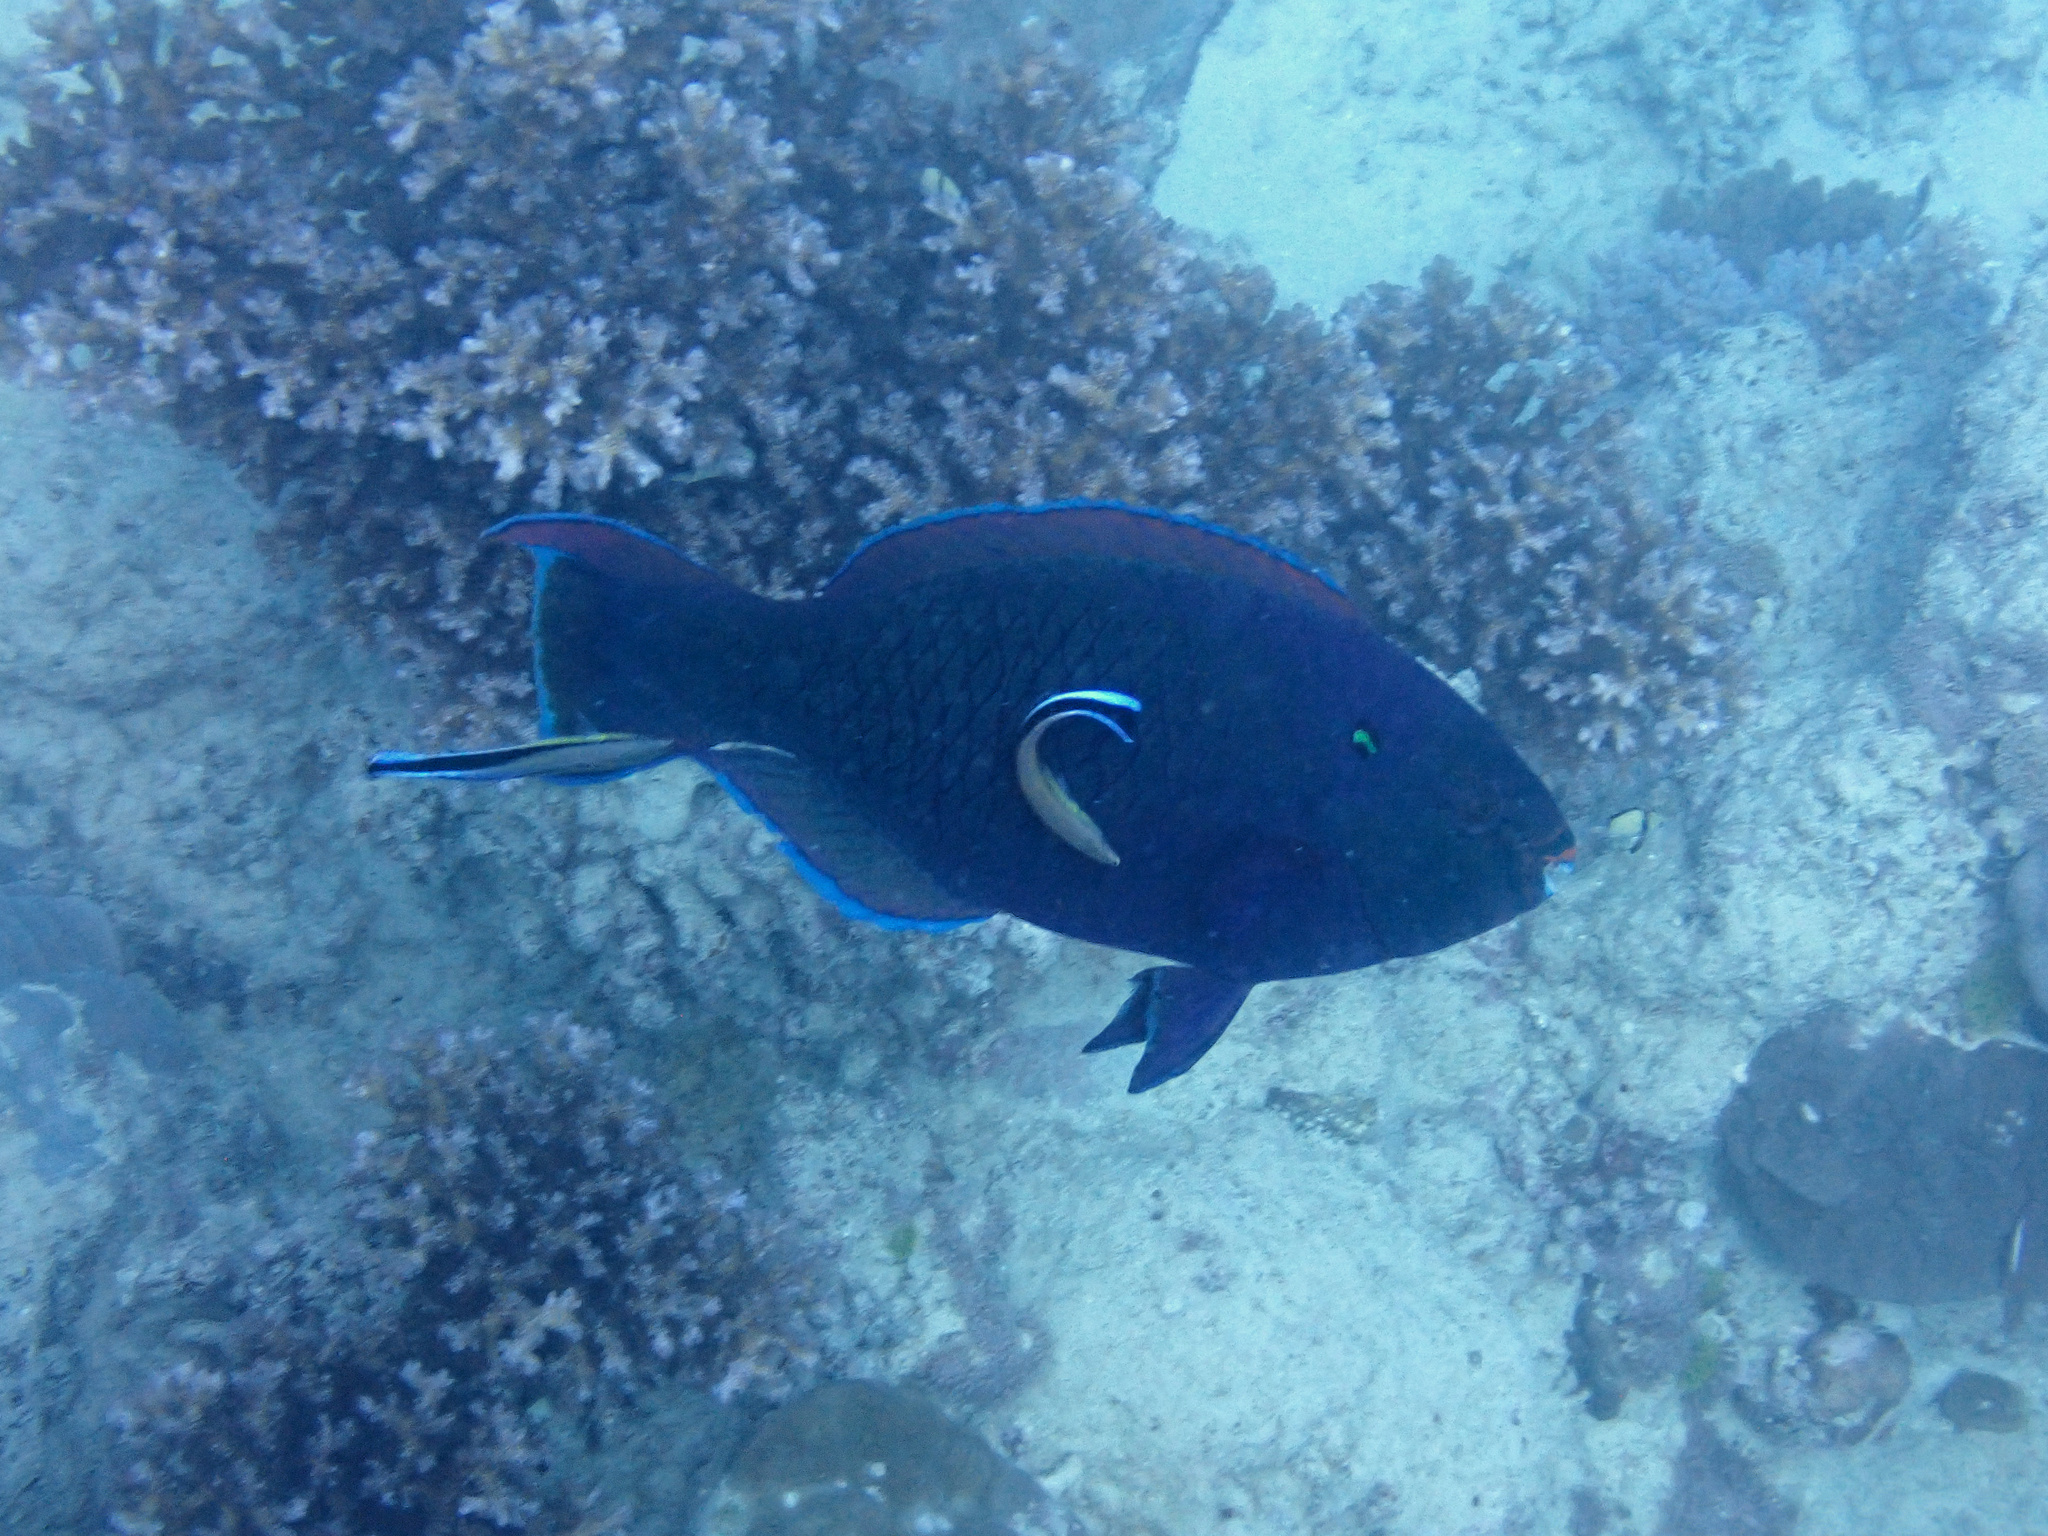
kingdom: Animalia
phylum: Chordata
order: Perciformes
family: Scaridae
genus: Scarus
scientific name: Scarus niger
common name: Dusky parrotfish
